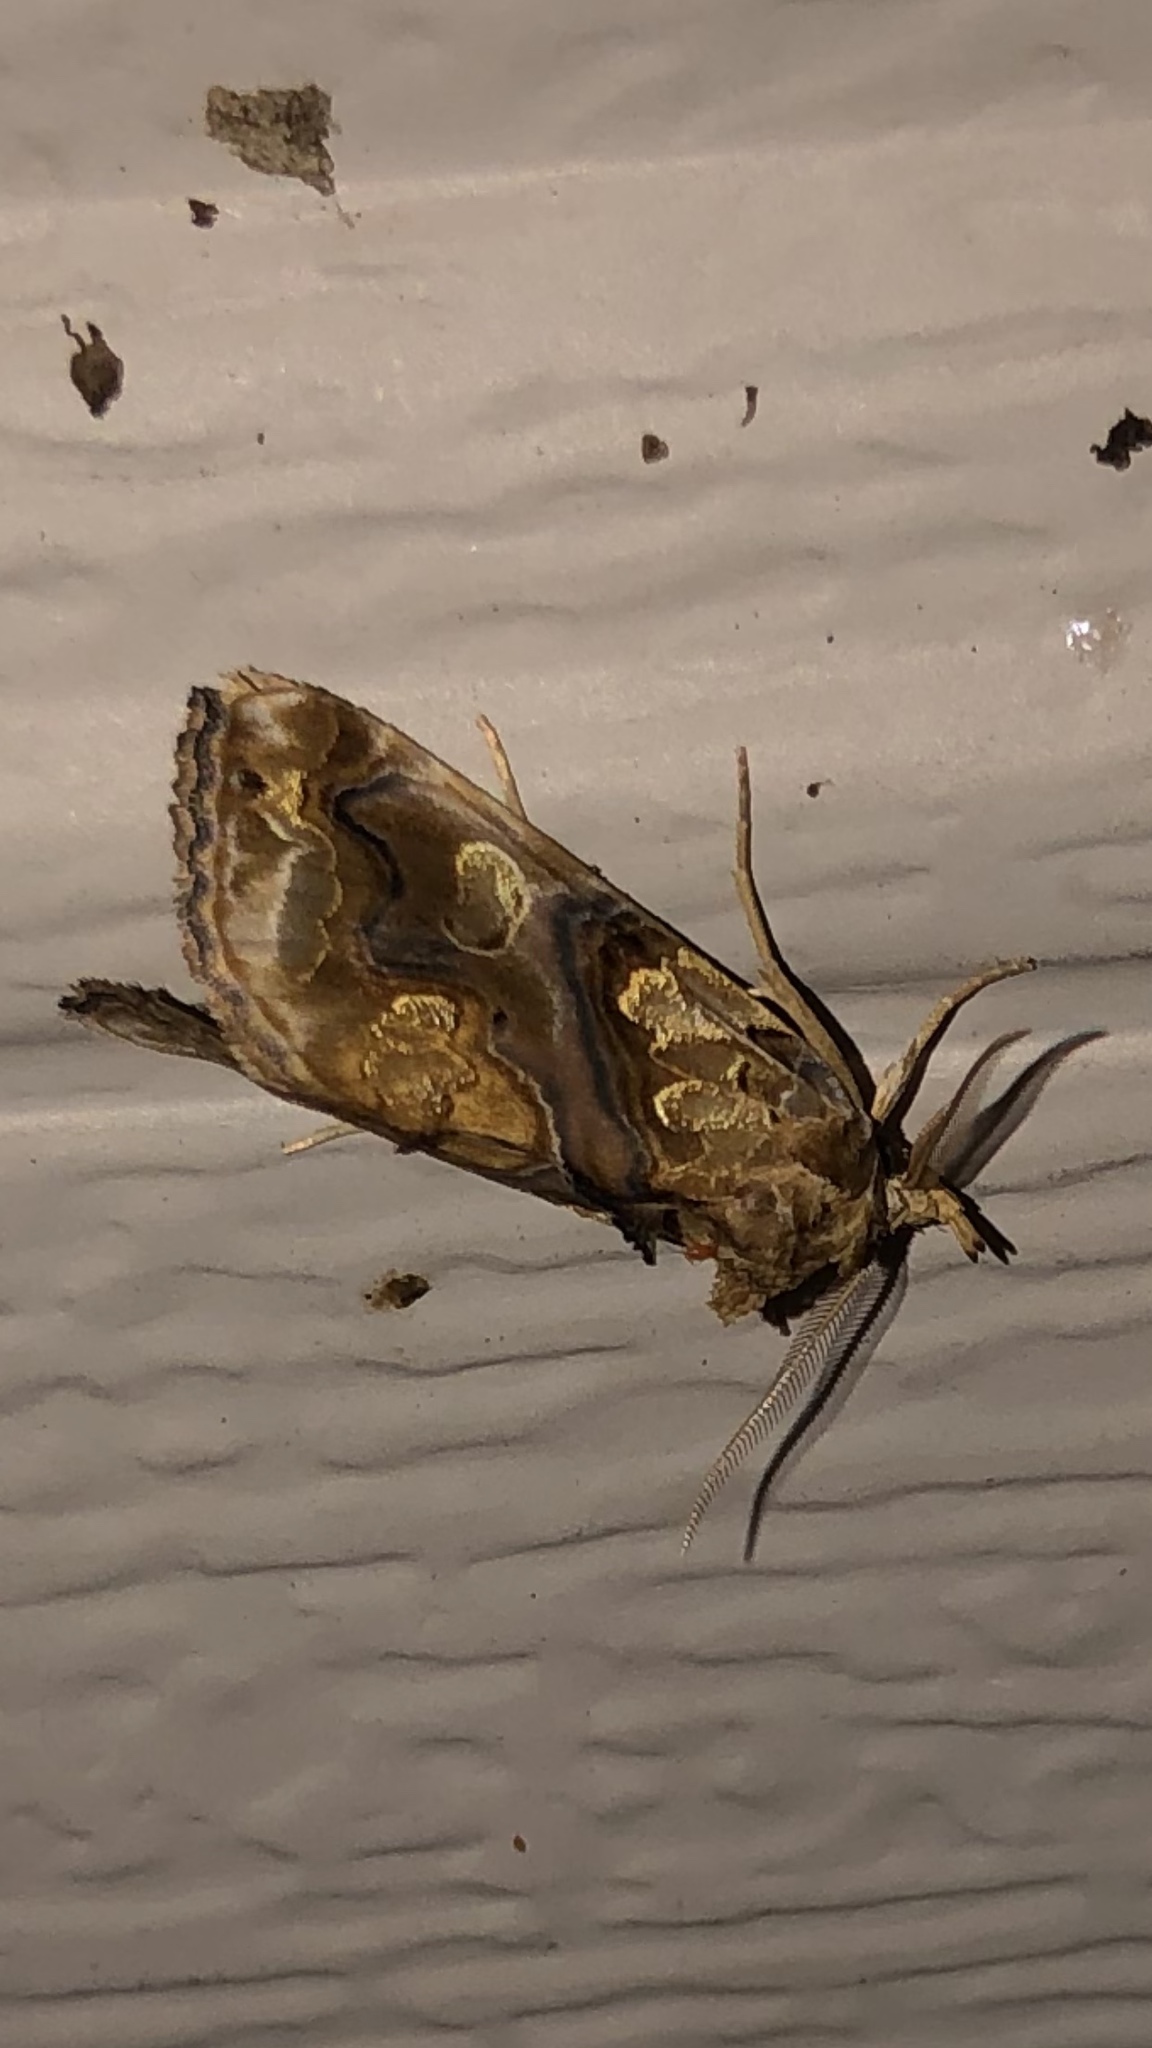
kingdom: Animalia
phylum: Arthropoda
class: Insecta
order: Lepidoptera
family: Erebidae
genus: Plusiodonta
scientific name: Plusiodonta compressipalpis
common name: Moonseed moth
